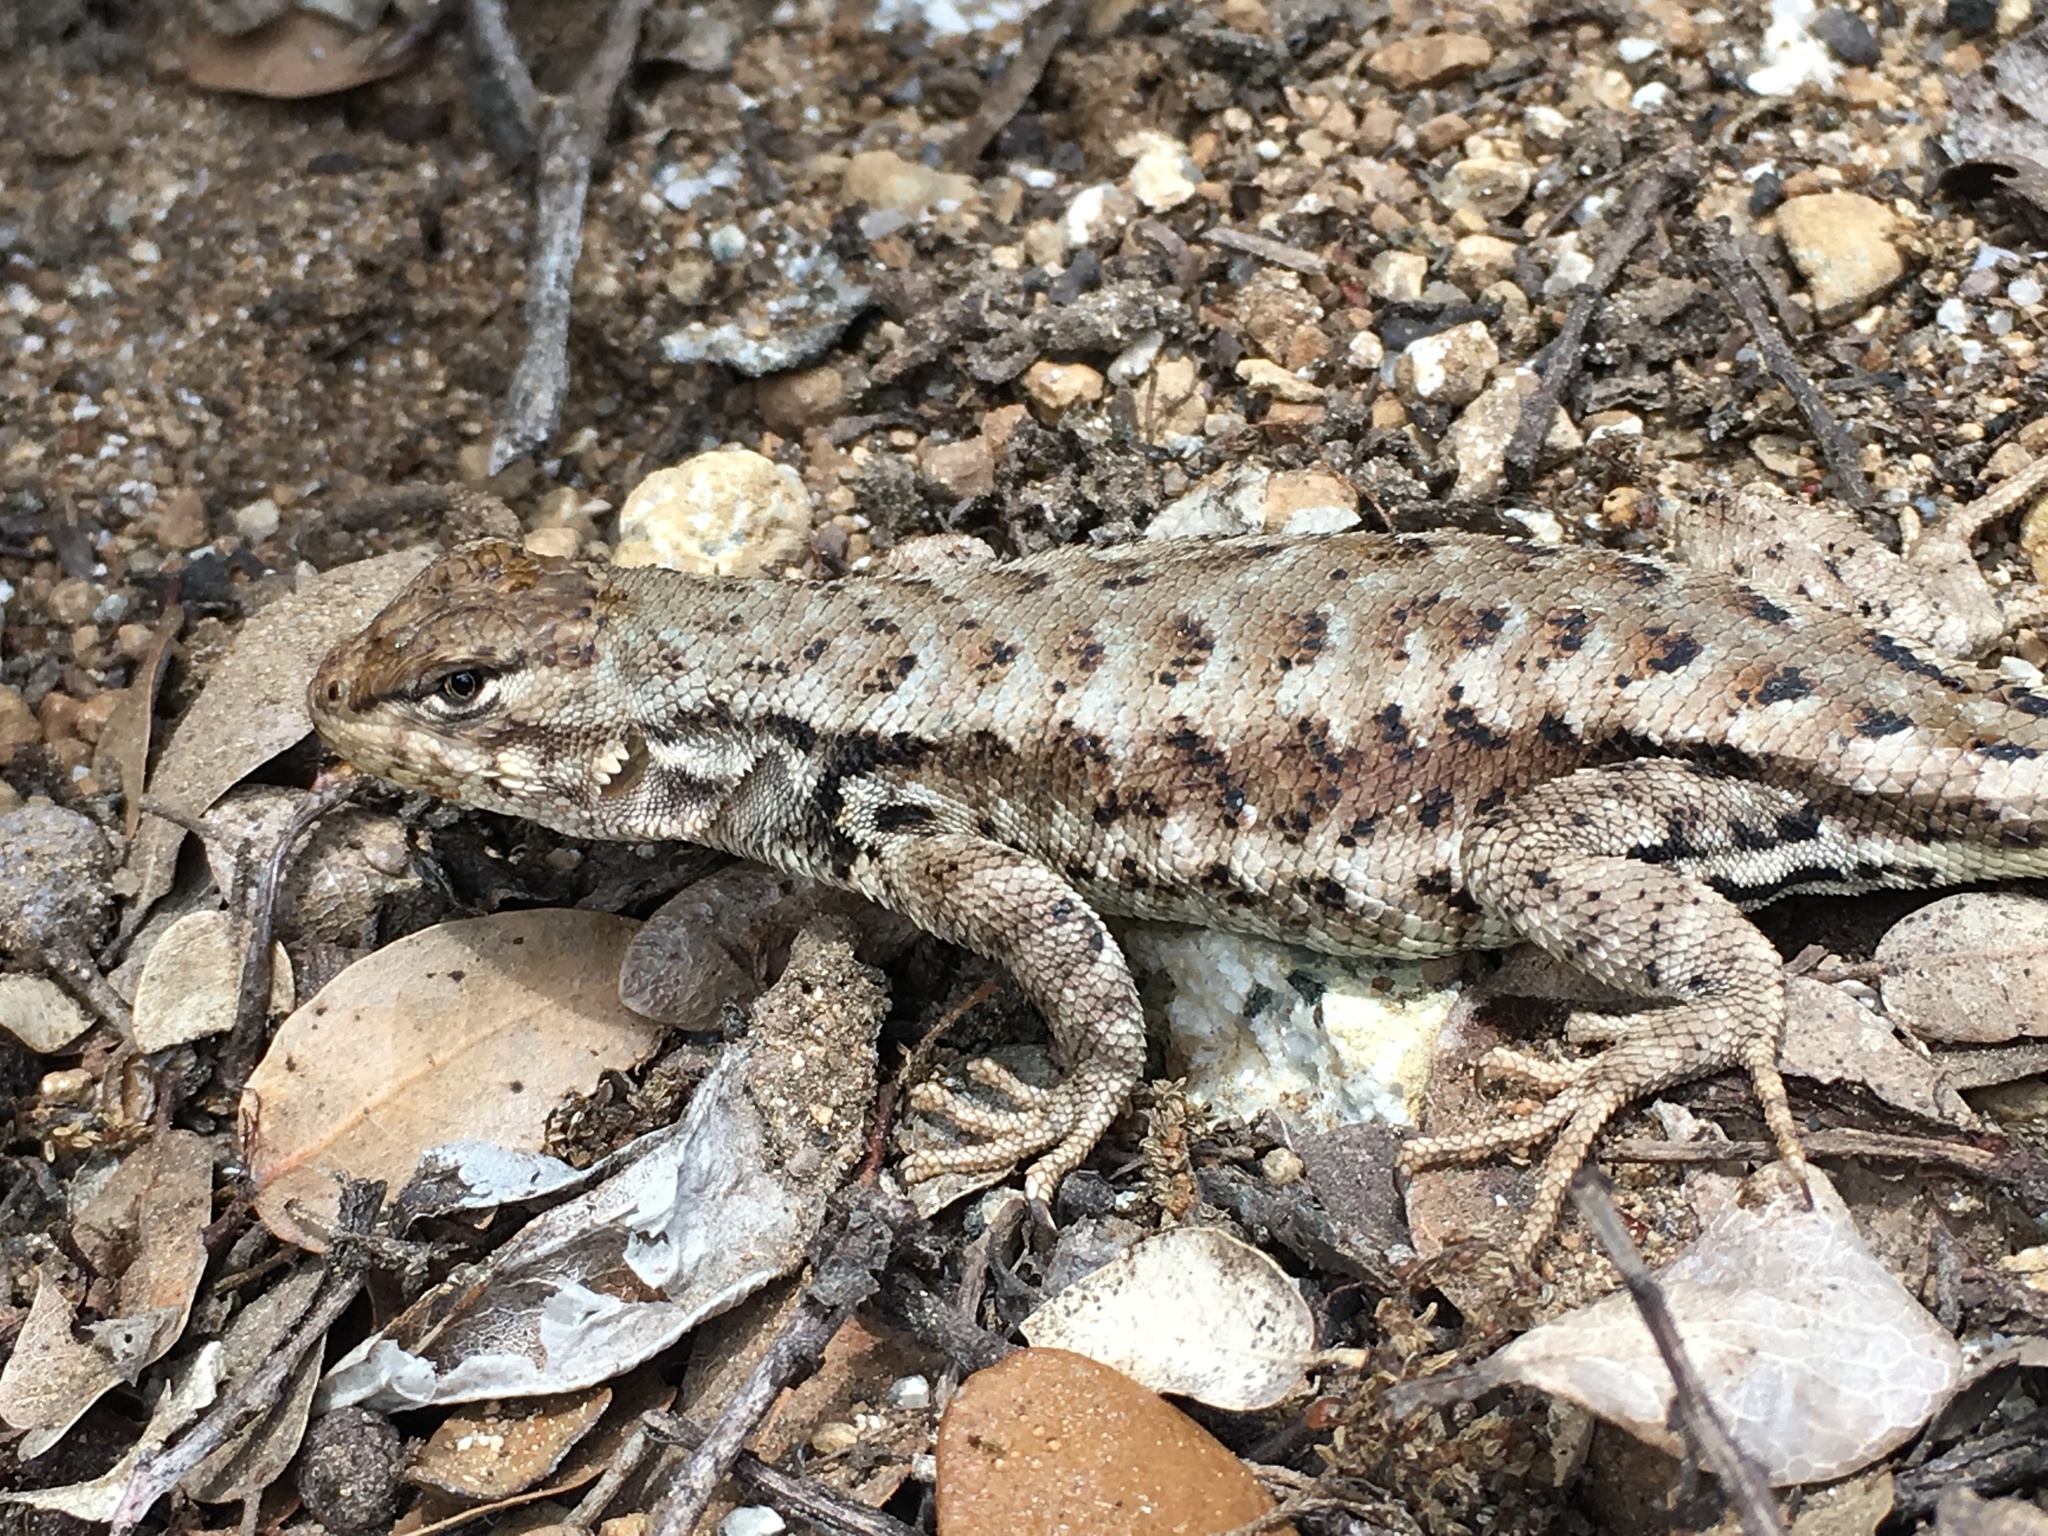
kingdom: Animalia
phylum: Chordata
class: Squamata
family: Phrynosomatidae
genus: Sceloporus
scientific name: Sceloporus graciosus
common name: Sagebrush lizard
